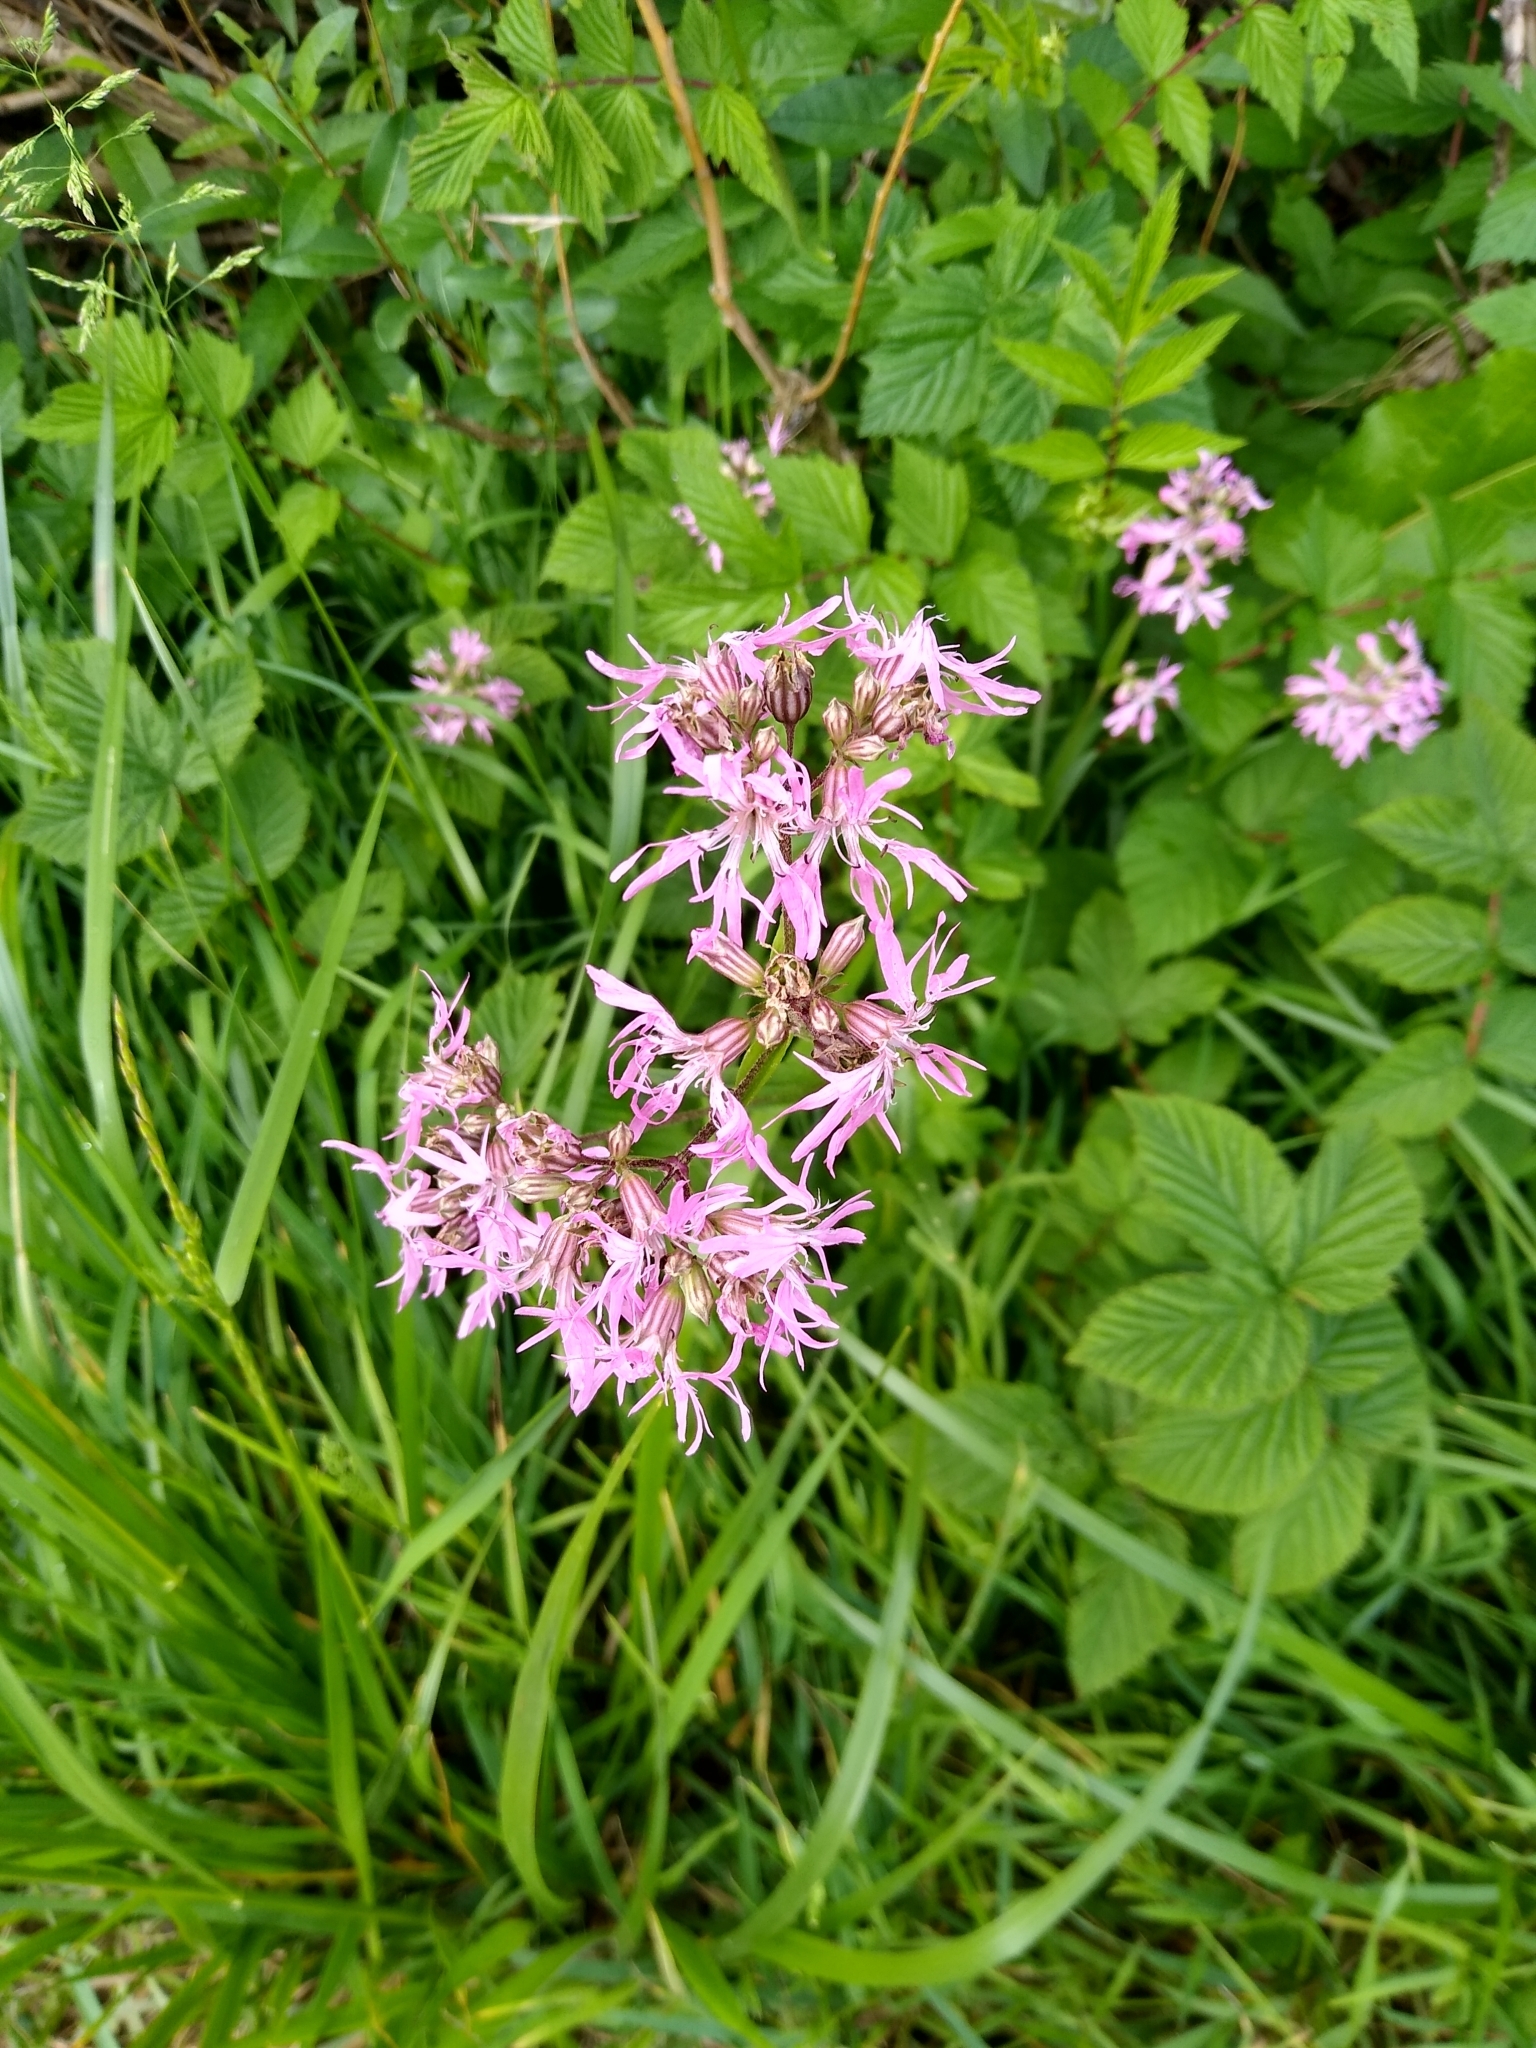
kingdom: Plantae
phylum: Tracheophyta
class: Magnoliopsida
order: Caryophyllales
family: Caryophyllaceae
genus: Silene
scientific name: Silene flos-cuculi
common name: Ragged-robin
